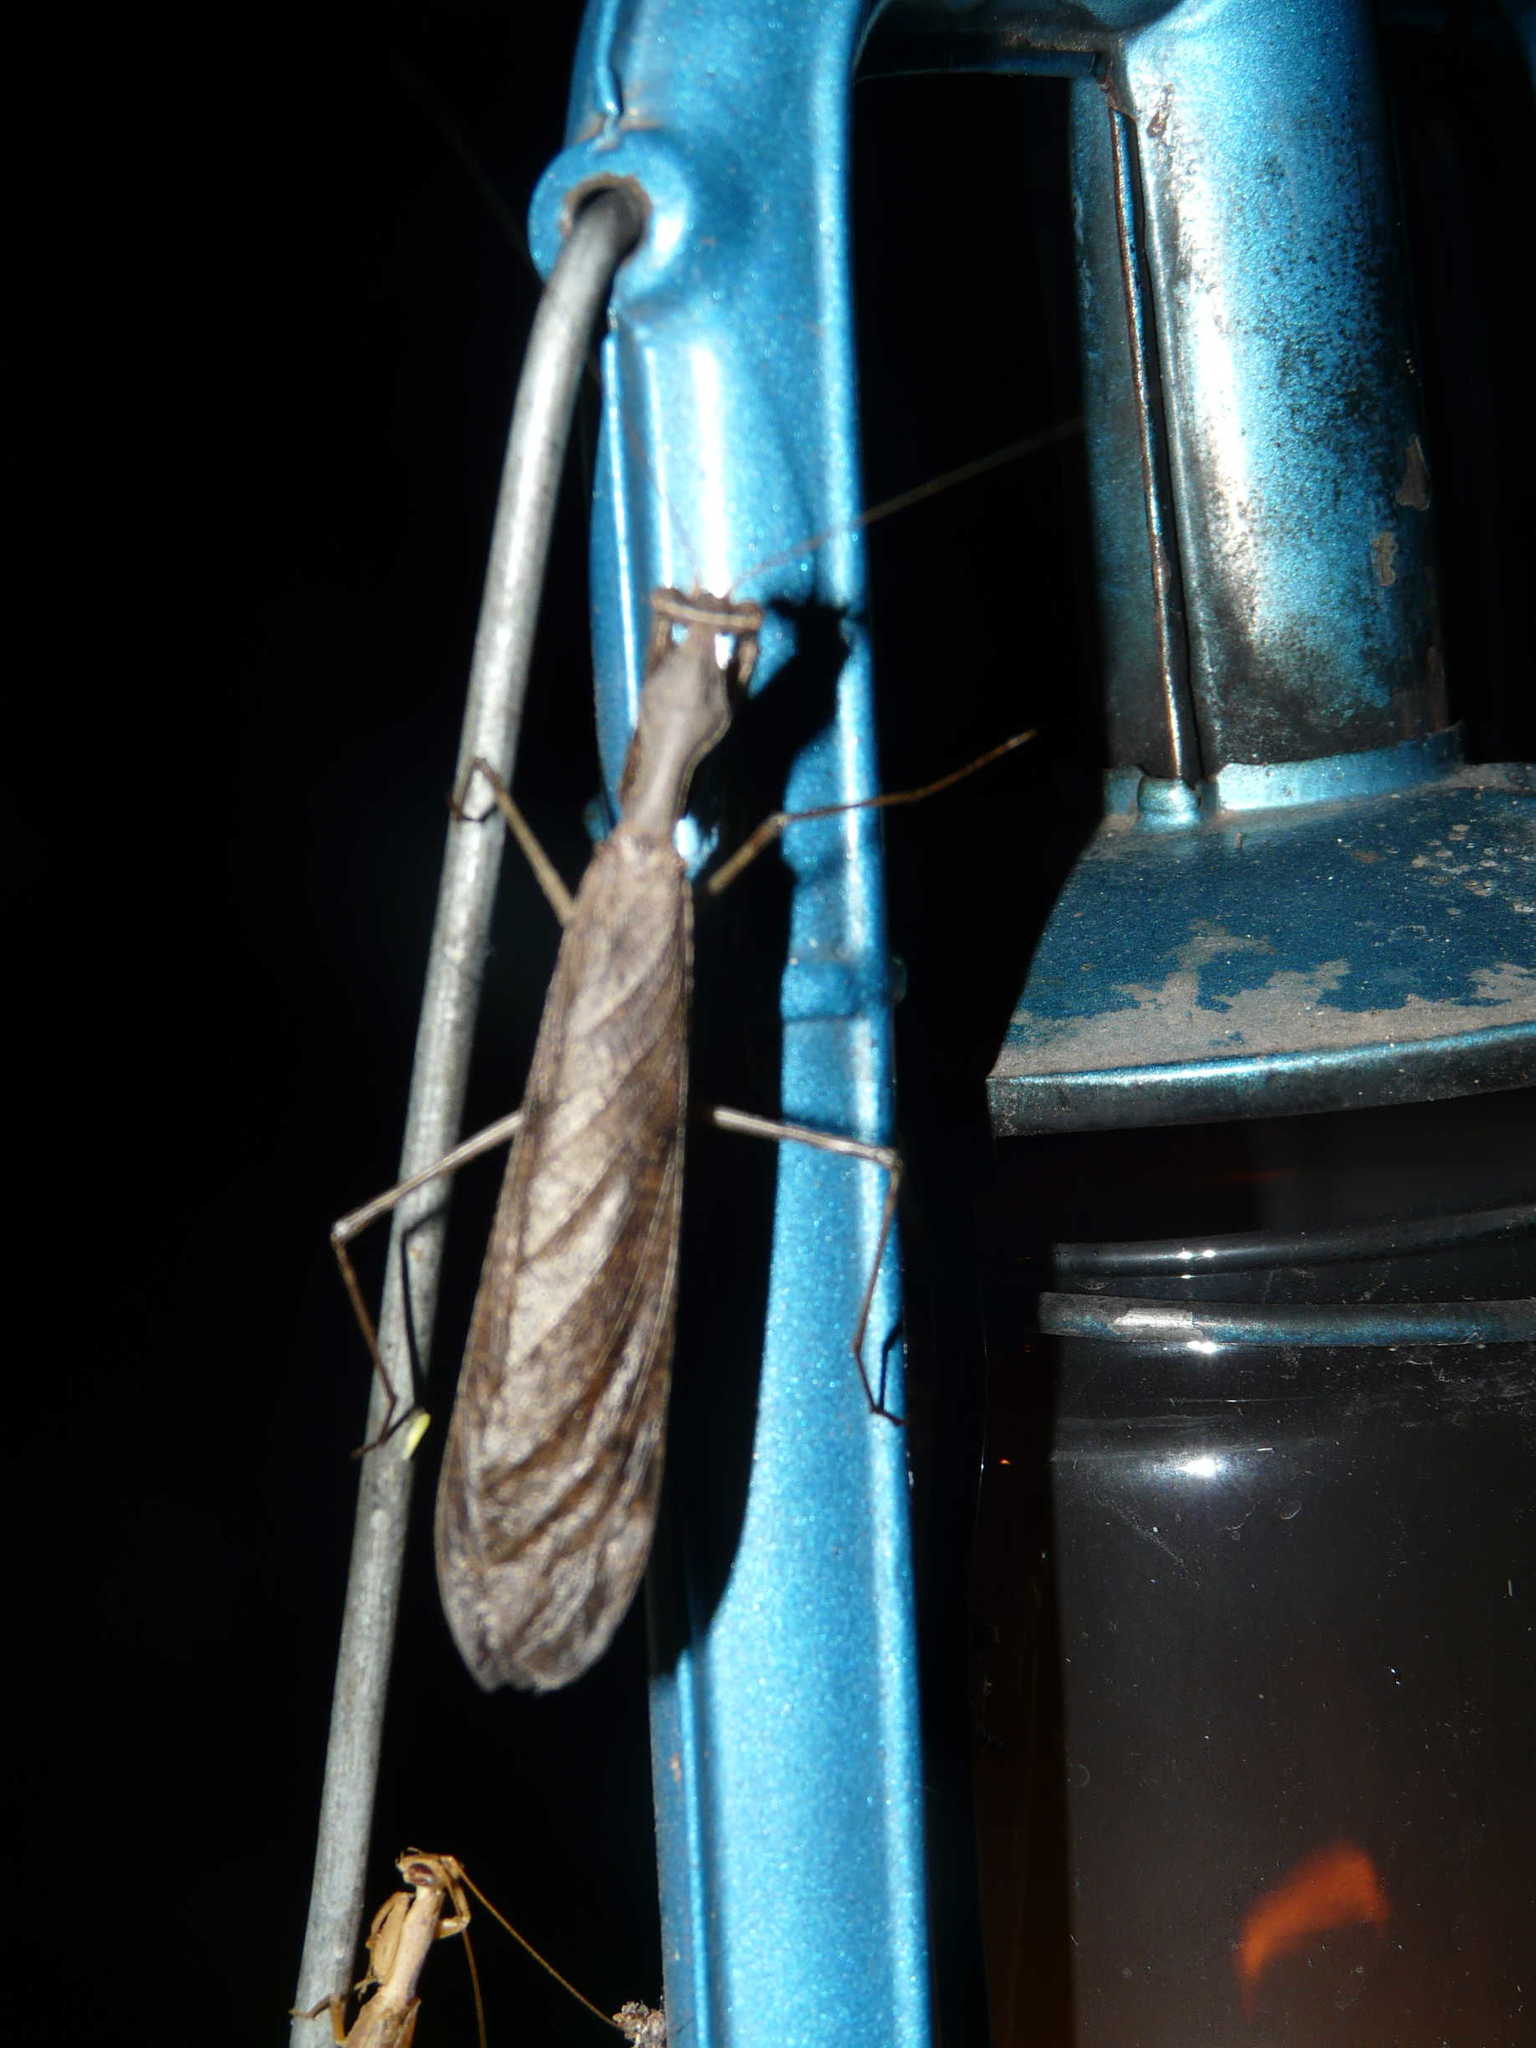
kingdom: Animalia
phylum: Arthropoda
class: Insecta
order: Mantodea
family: Chroicopteridae
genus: Dystacta
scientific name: Dystacta alticeps
